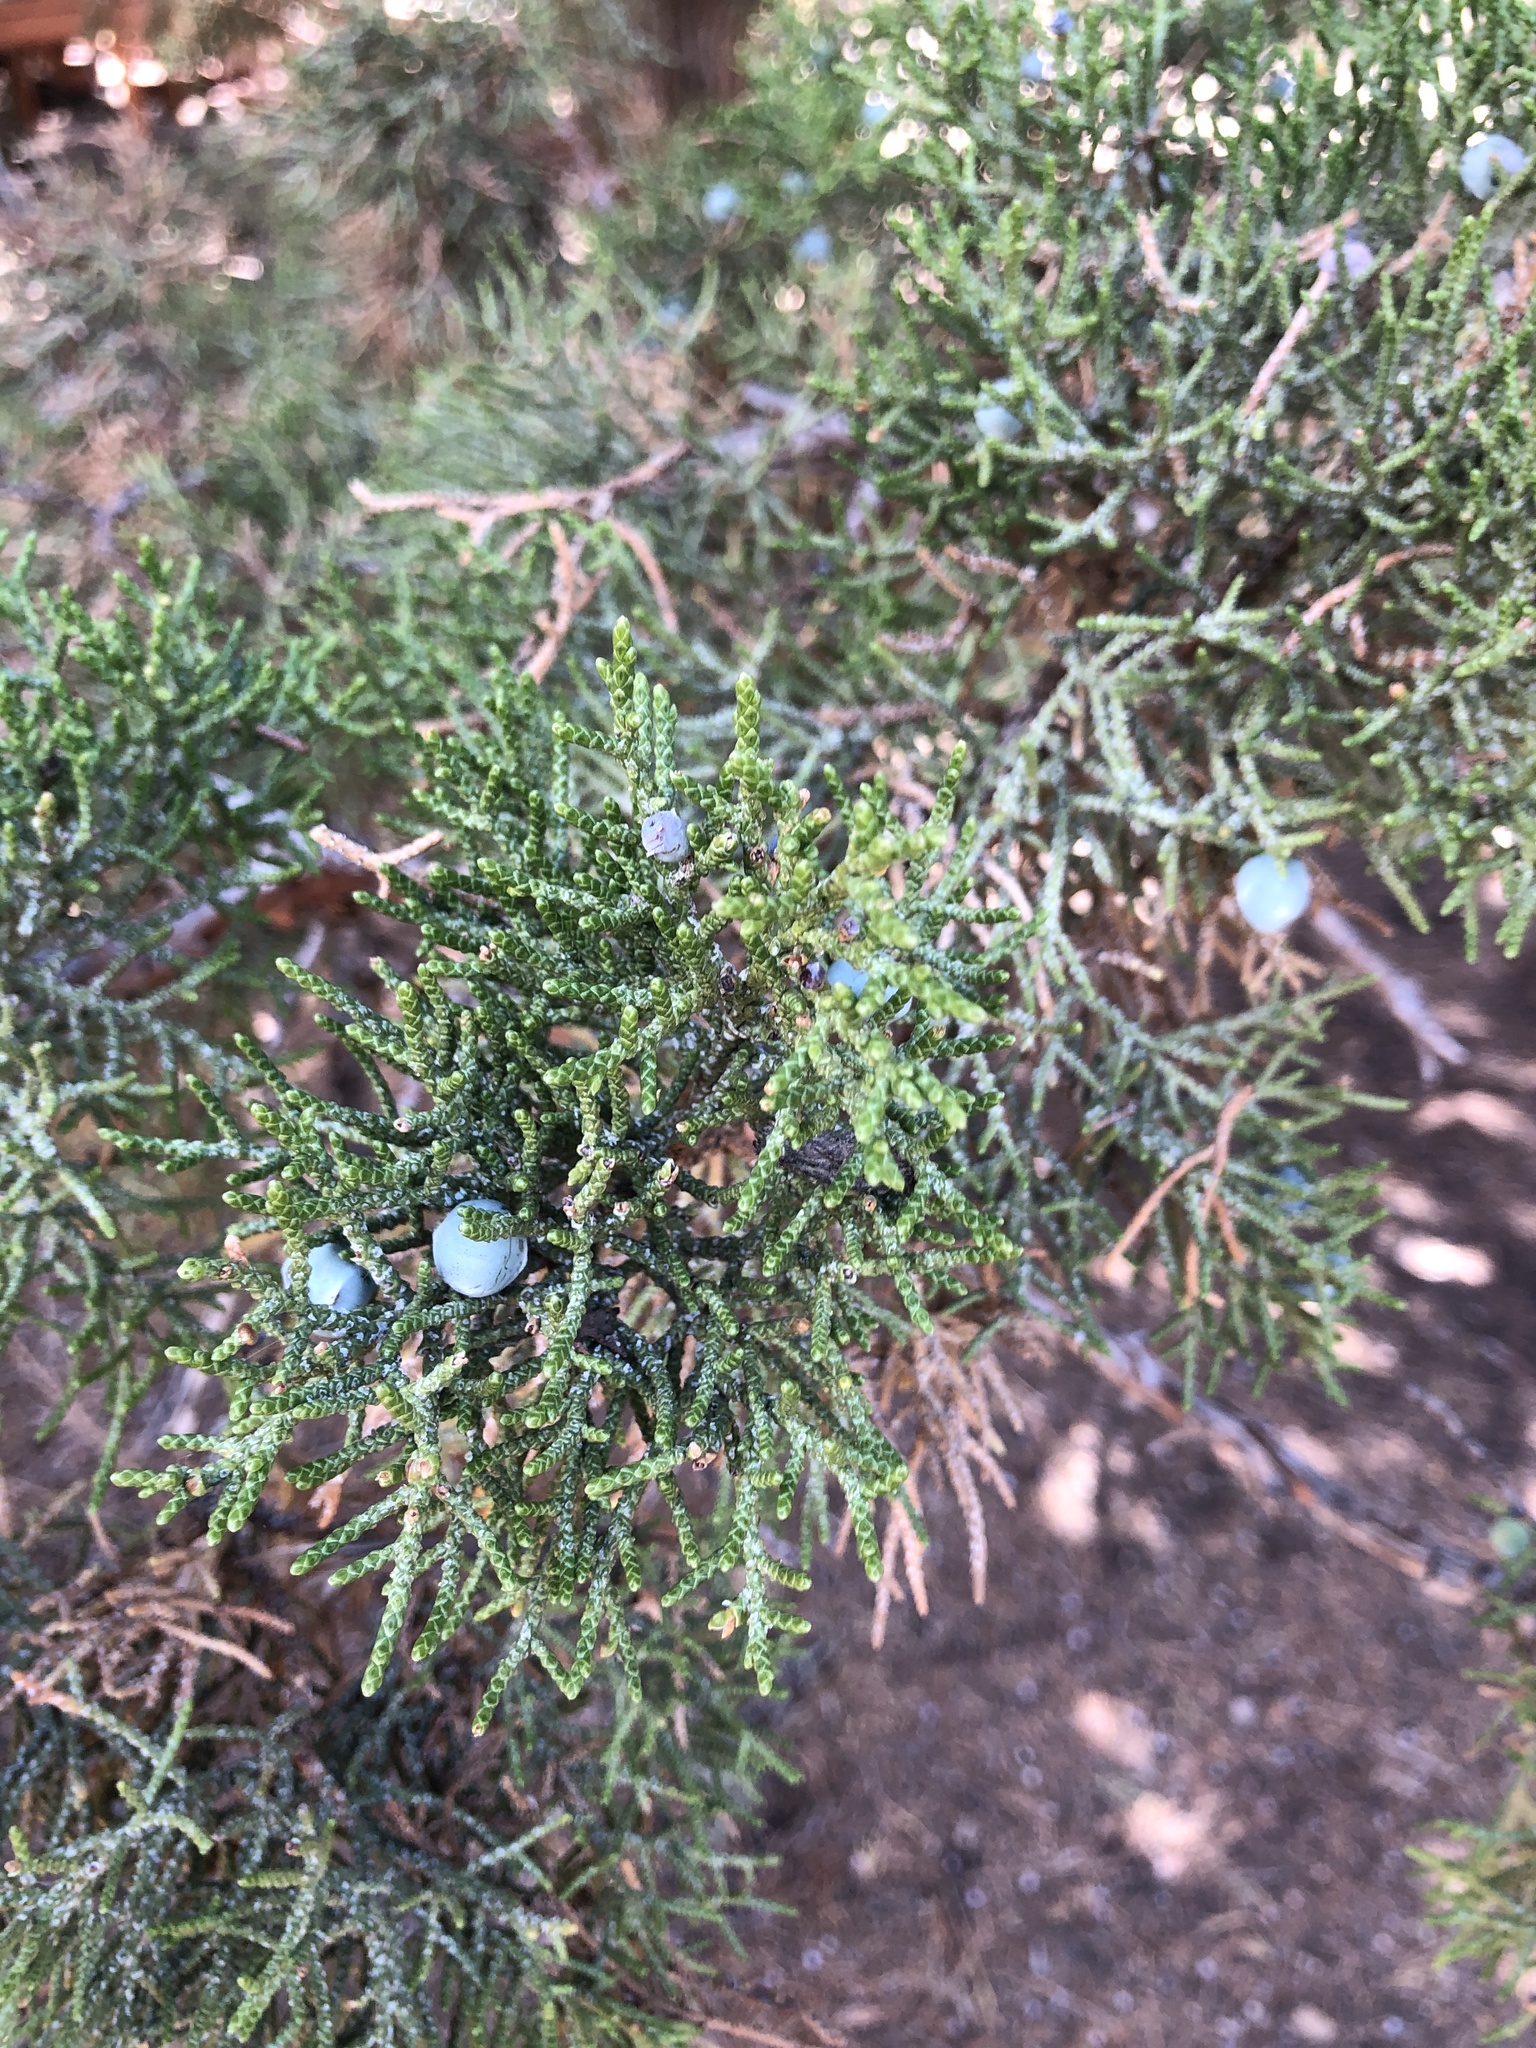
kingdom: Plantae
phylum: Tracheophyta
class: Pinopsida
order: Pinales
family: Cupressaceae
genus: Juniperus
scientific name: Juniperus occidentalis
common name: Western juniper
